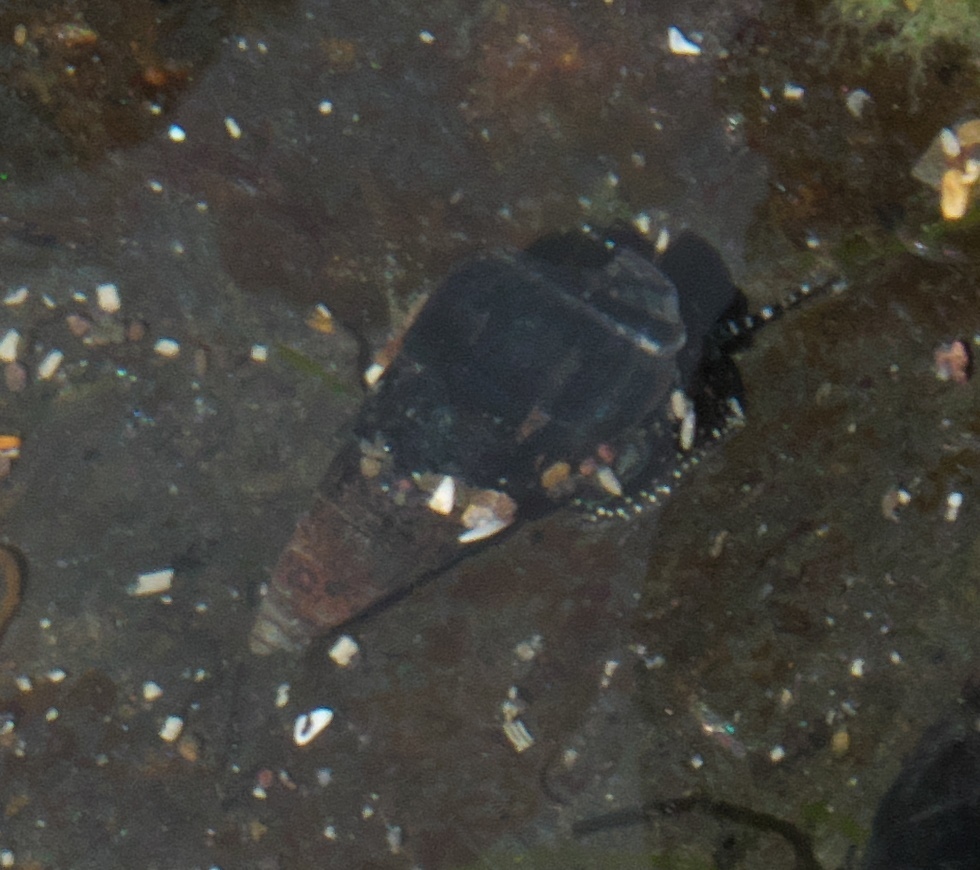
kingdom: Animalia
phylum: Mollusca
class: Gastropoda
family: Batillariidae
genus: Zeacumantus
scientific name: Zeacumantus subcarinatus
